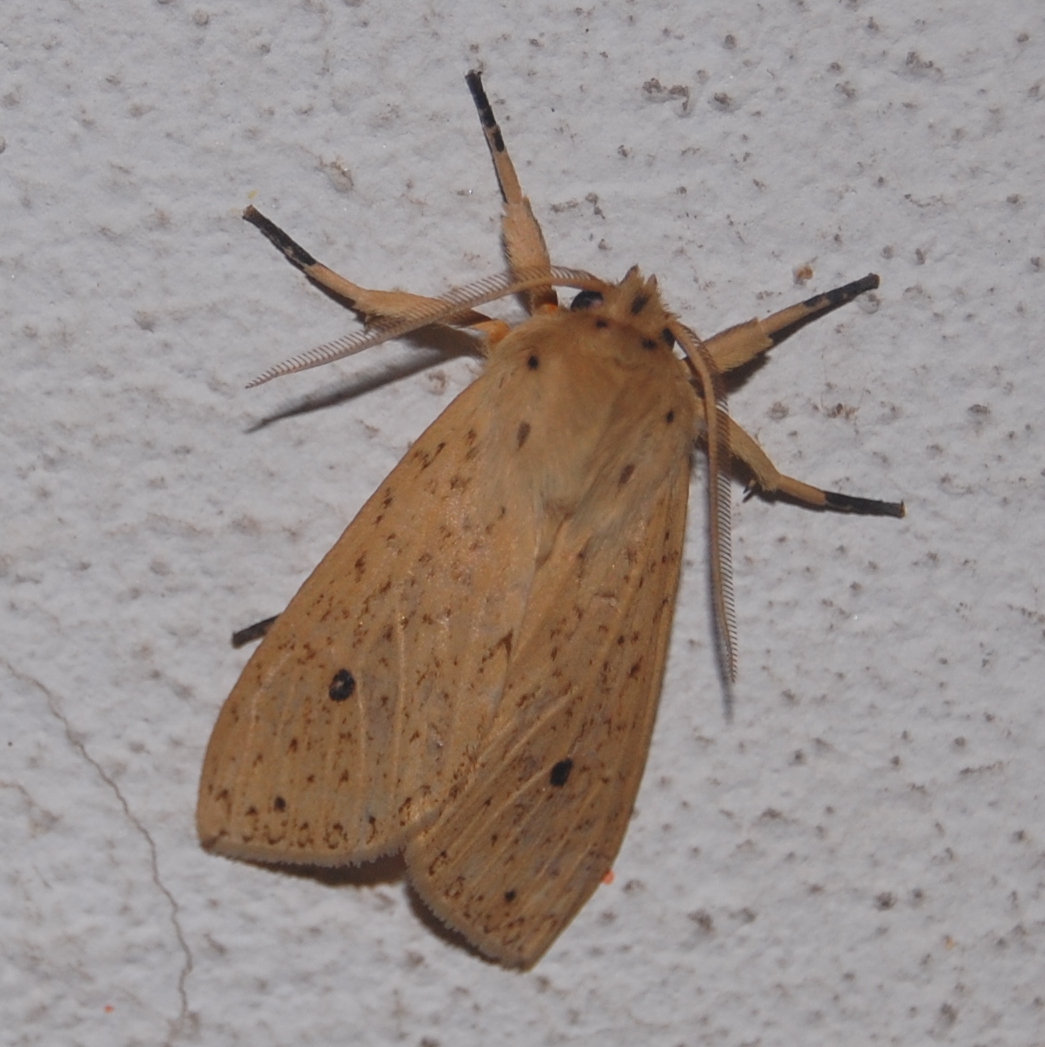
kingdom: Animalia
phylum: Arthropoda
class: Insecta
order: Lepidoptera
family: Erebidae
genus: Leucanopsis
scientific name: Leucanopsis leucanina
